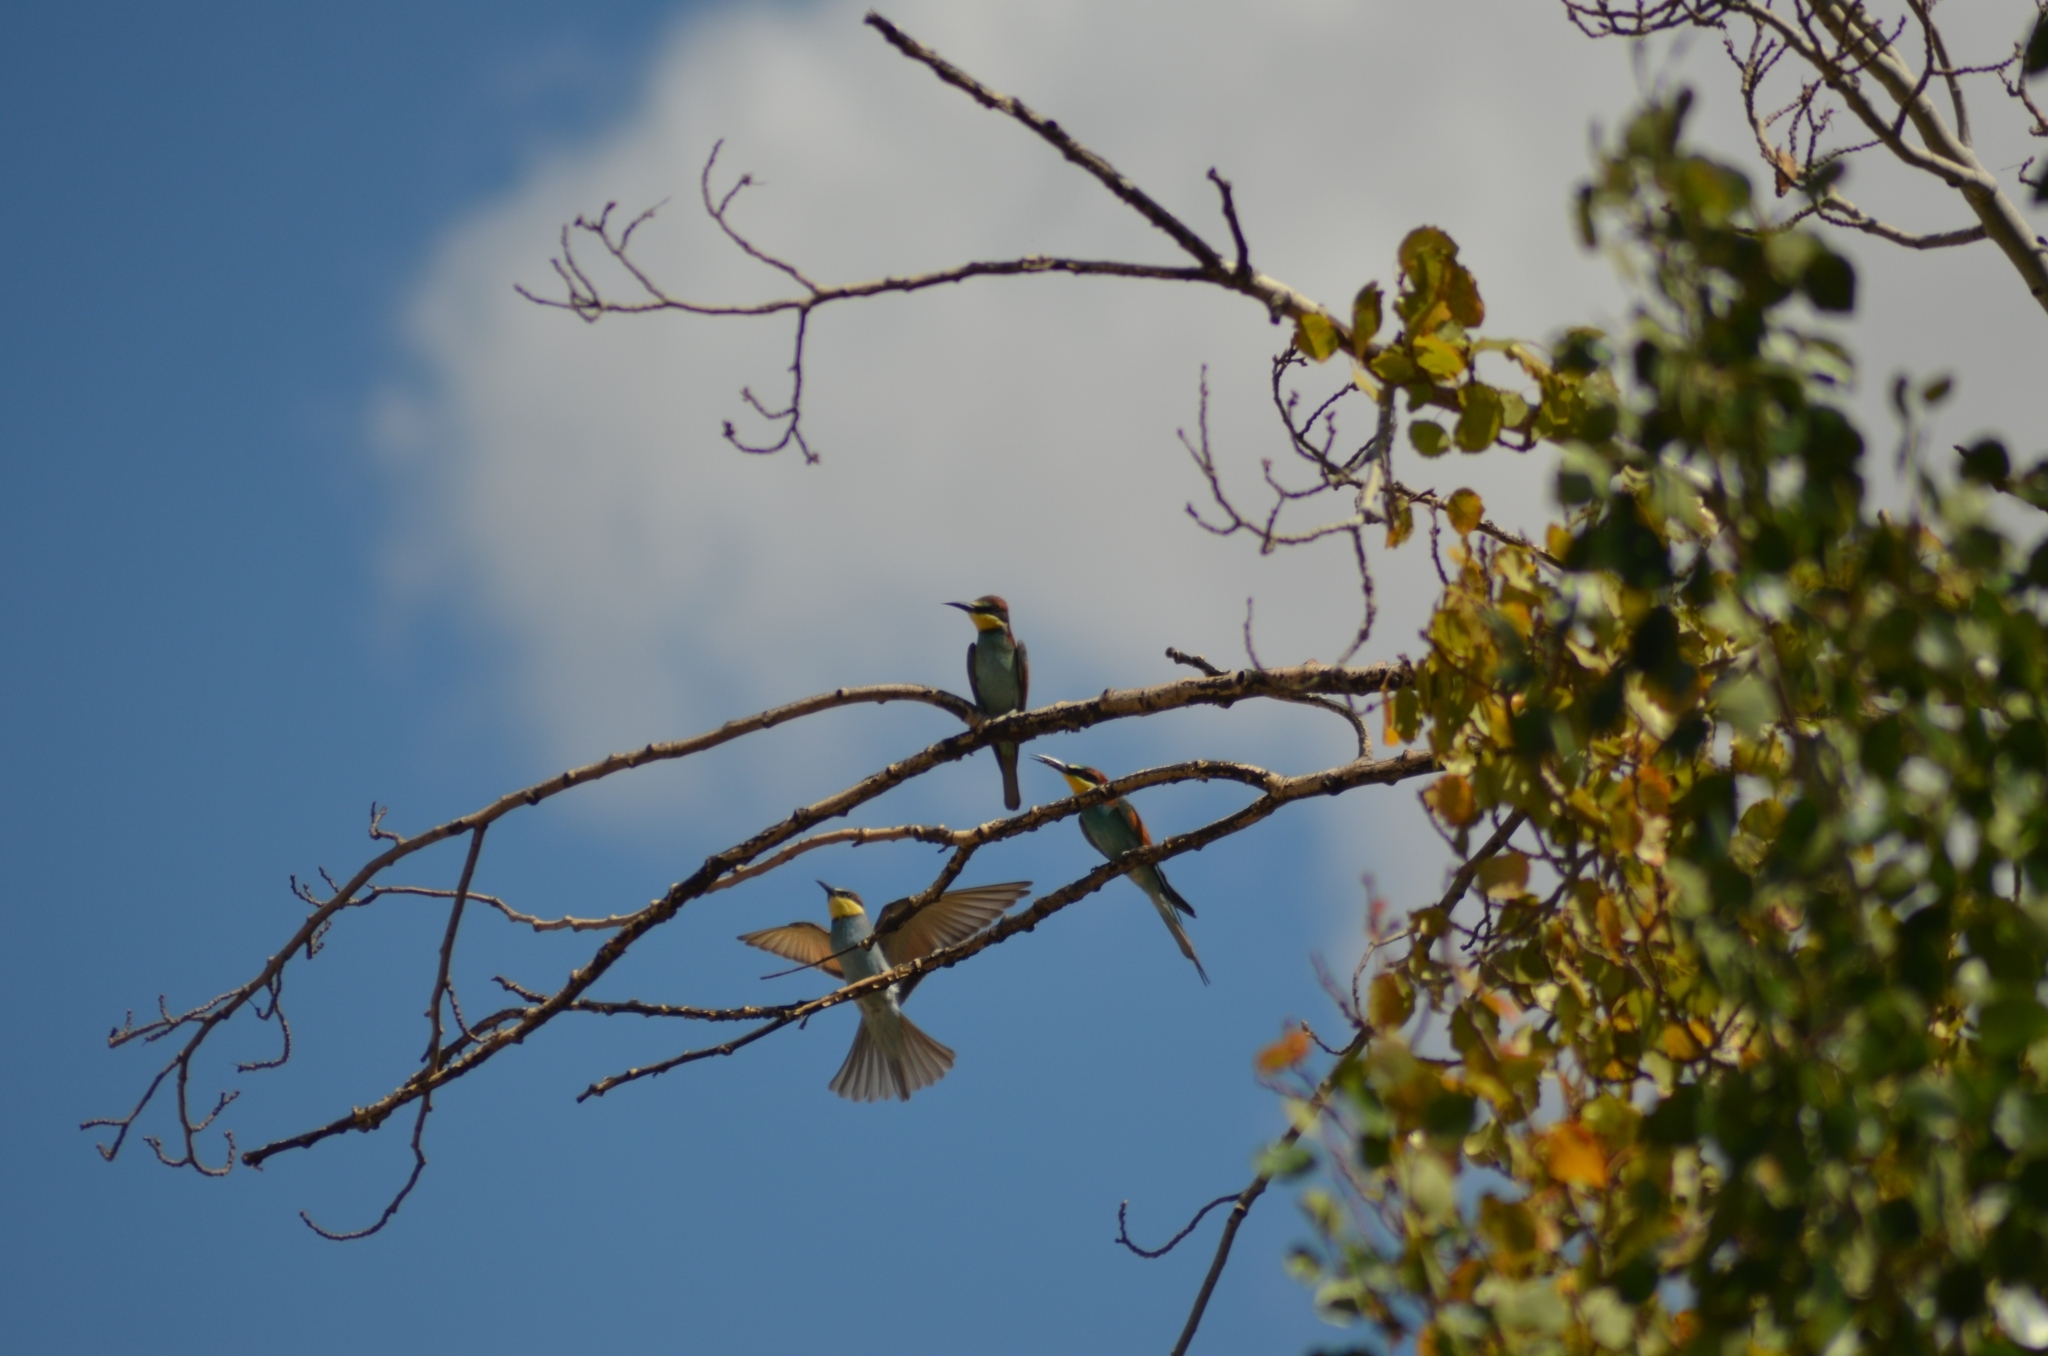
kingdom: Animalia
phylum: Chordata
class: Aves
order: Coraciiformes
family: Meropidae
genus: Merops
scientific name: Merops apiaster
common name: European bee-eater
